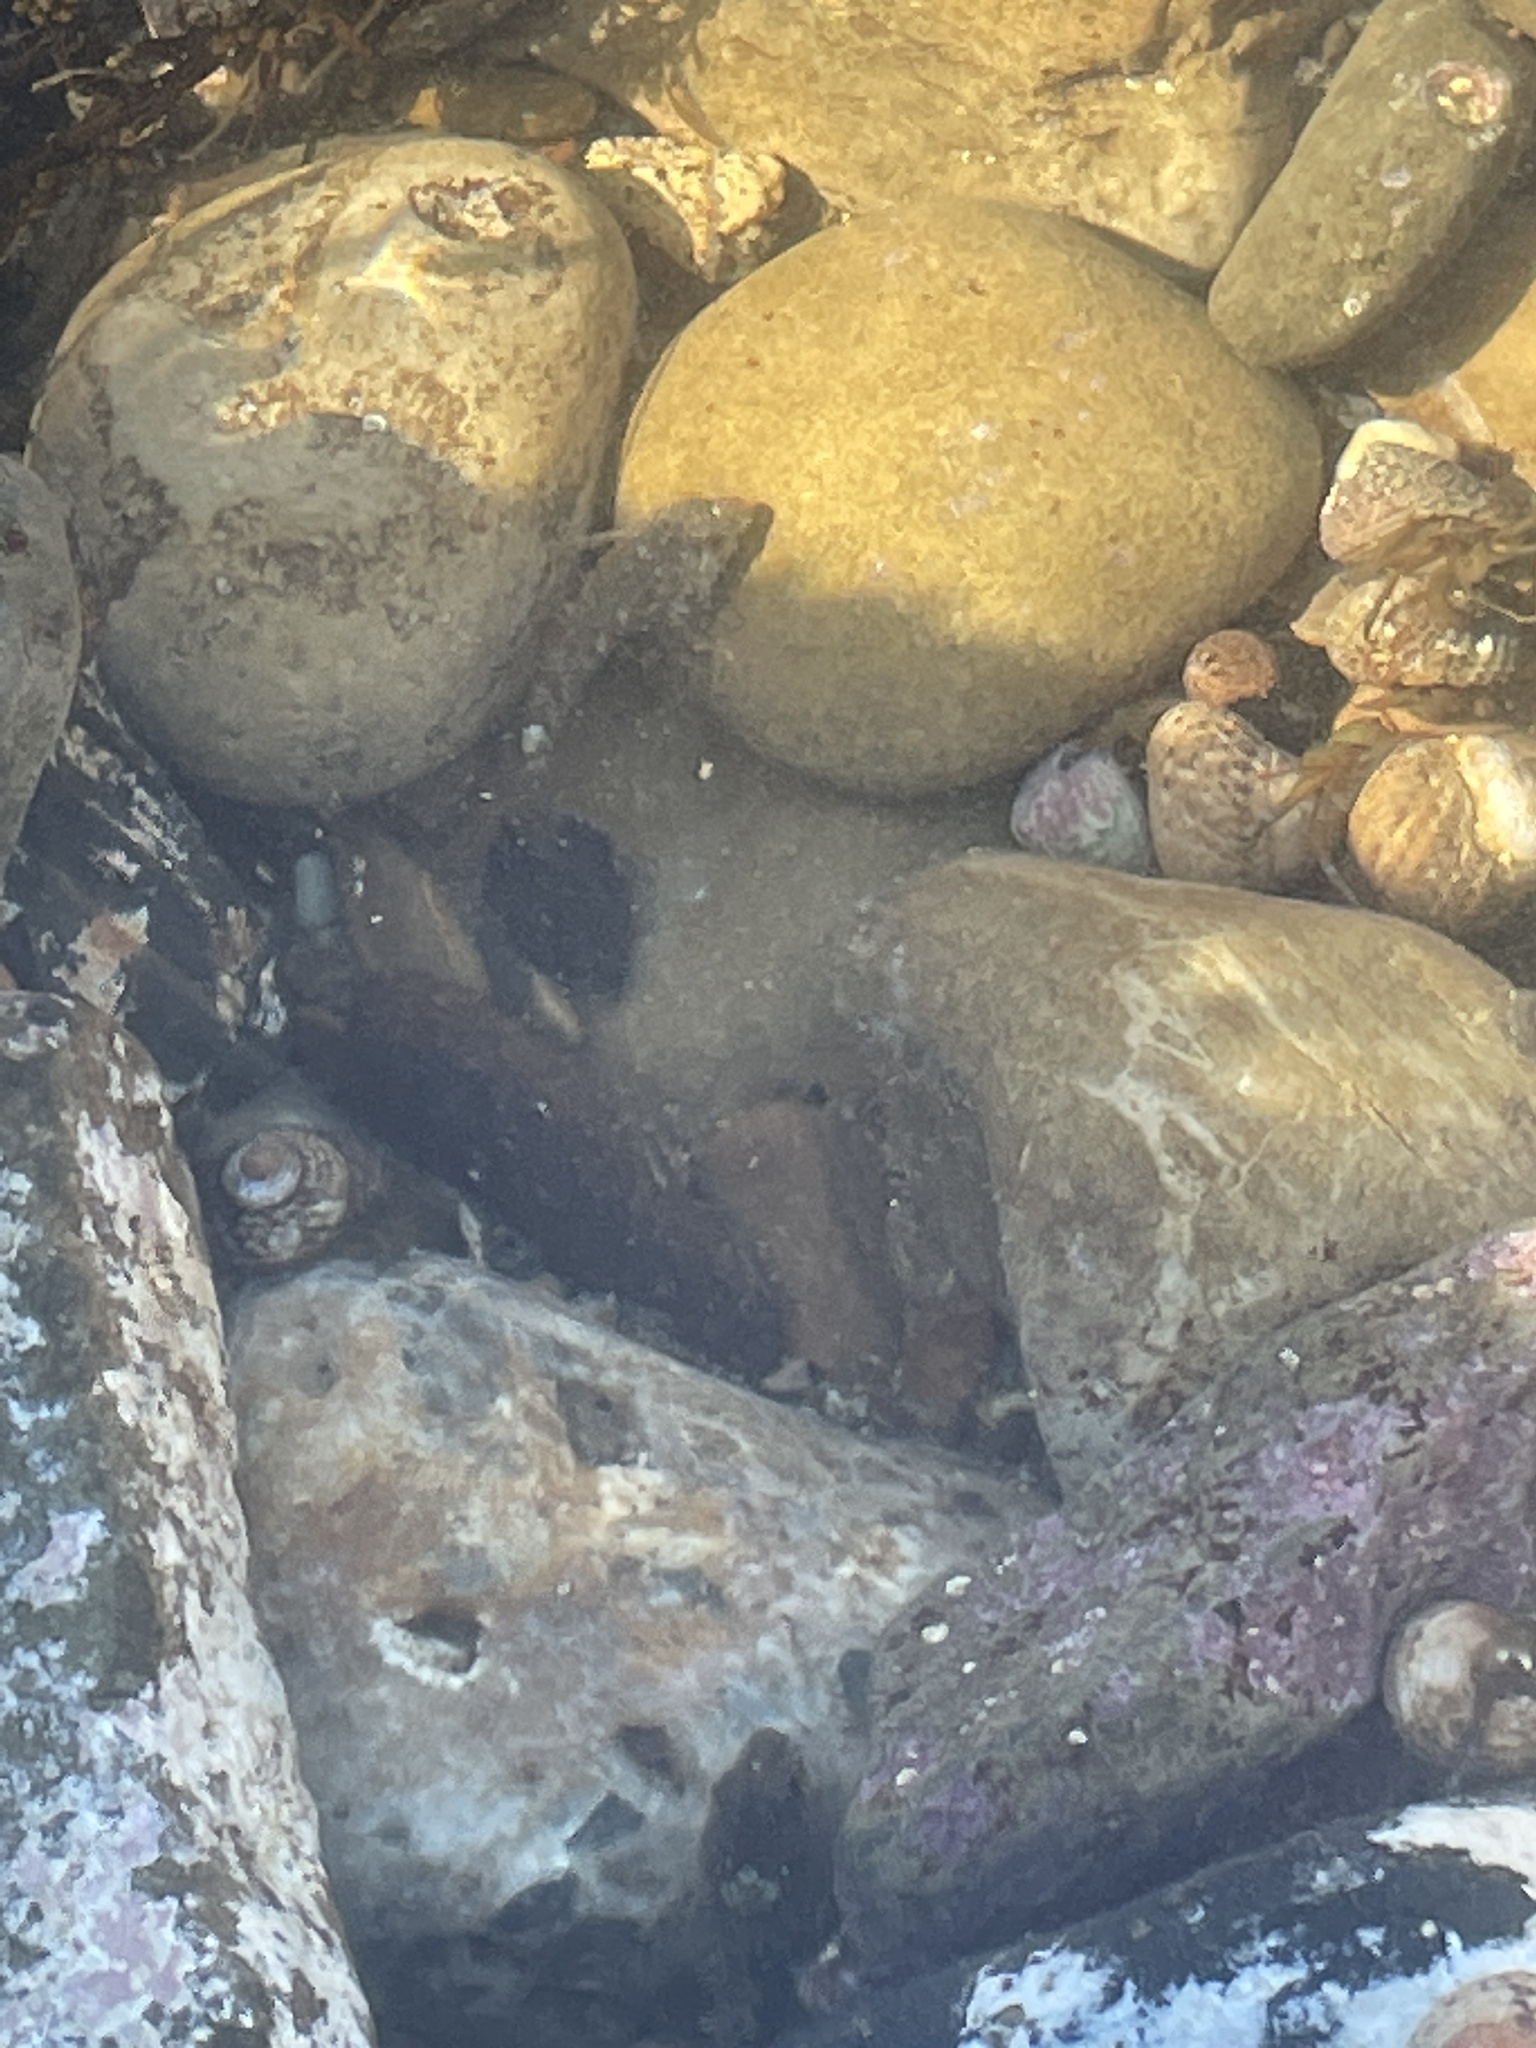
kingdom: Animalia
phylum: Chordata
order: Scorpaeniformes
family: Cottidae
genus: Clinocottus
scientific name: Clinocottus analis
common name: Woolly sculpin
